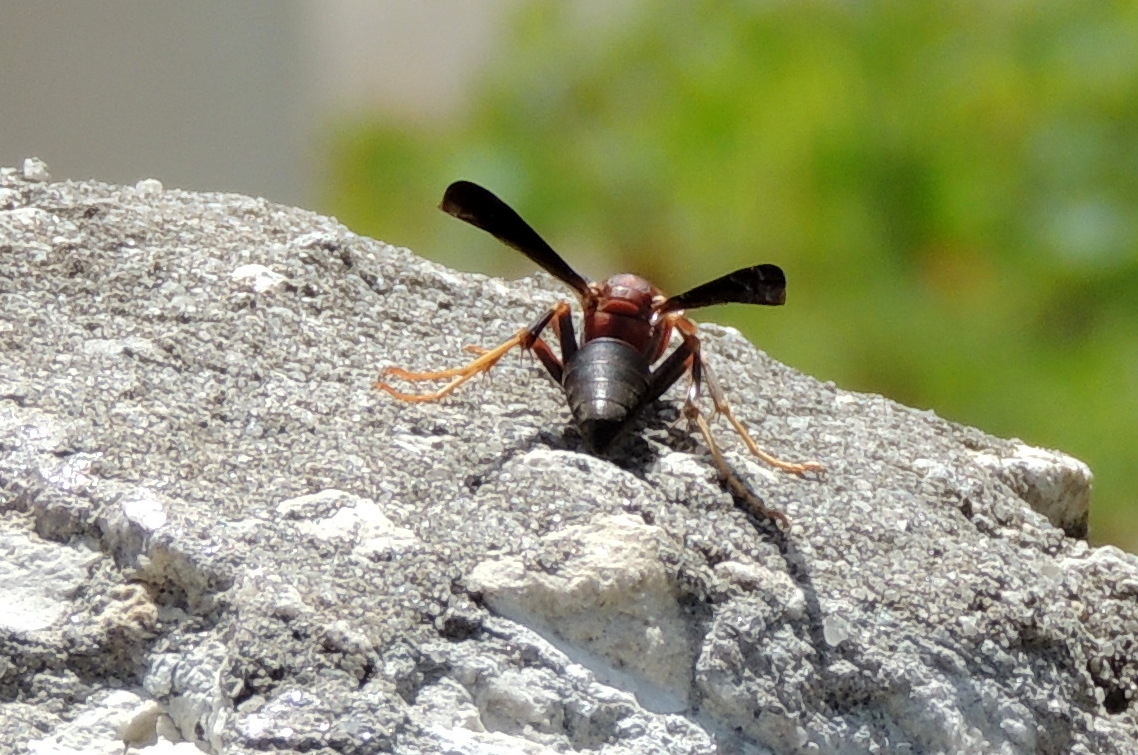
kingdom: Animalia
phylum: Arthropoda
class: Insecta
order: Hymenoptera
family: Eumenidae
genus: Polistes
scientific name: Polistes metricus
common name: Metric paper wasp
